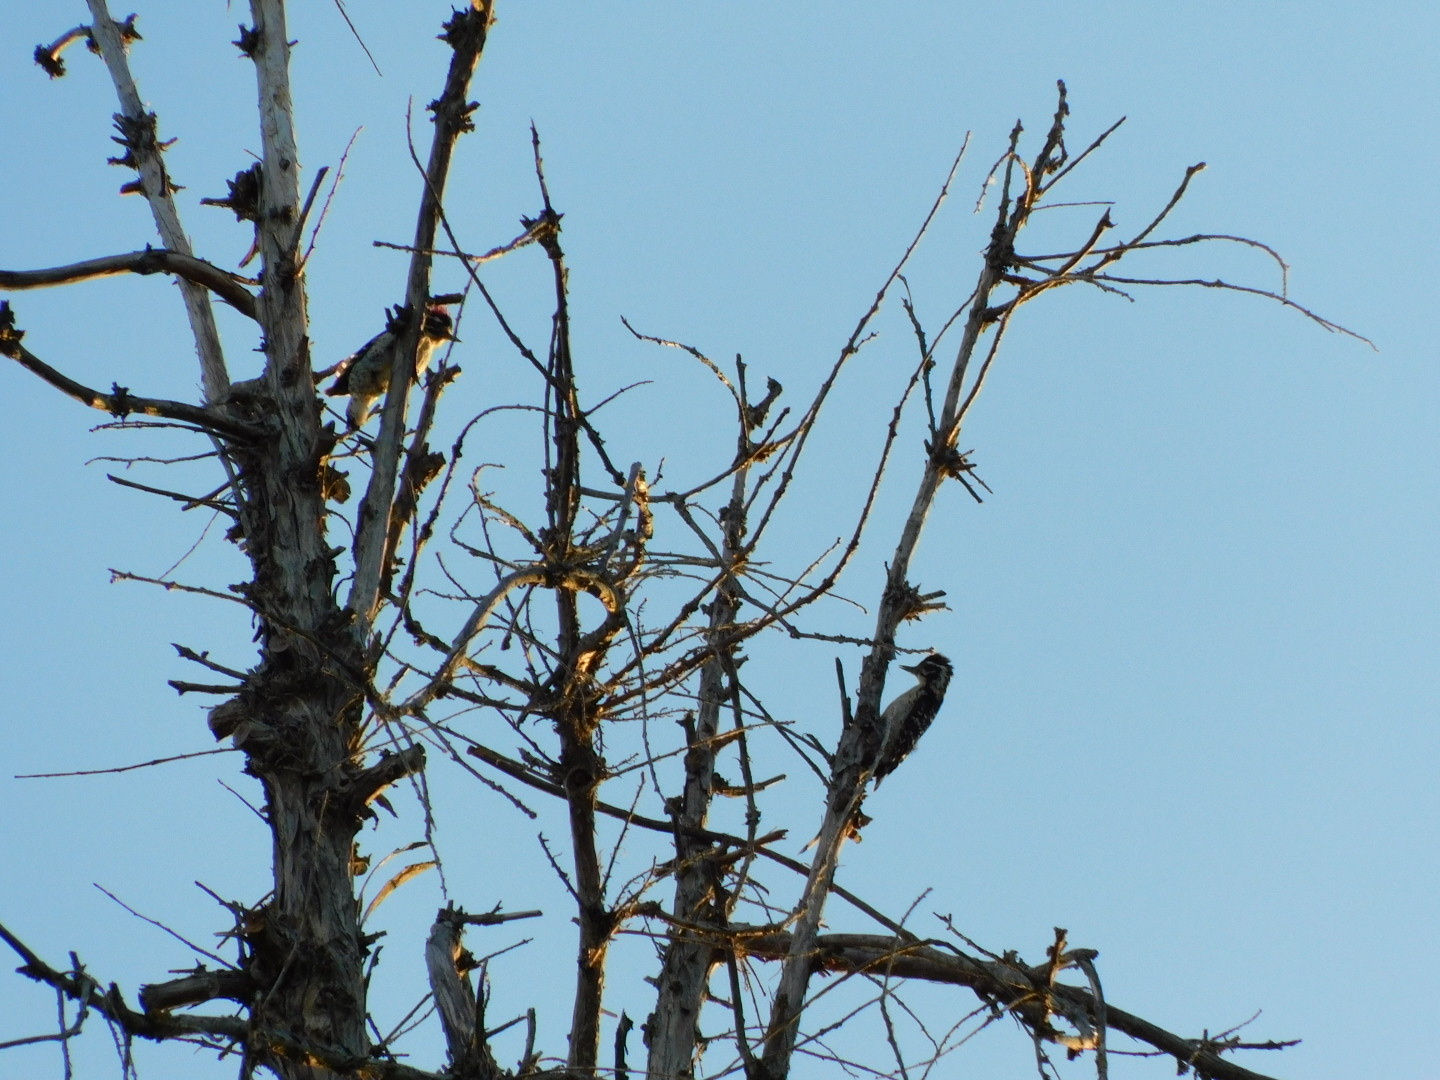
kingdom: Animalia
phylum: Chordata
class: Aves
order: Piciformes
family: Picidae
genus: Dryobates
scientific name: Dryobates nuttallii
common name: Nuttall's woodpecker
